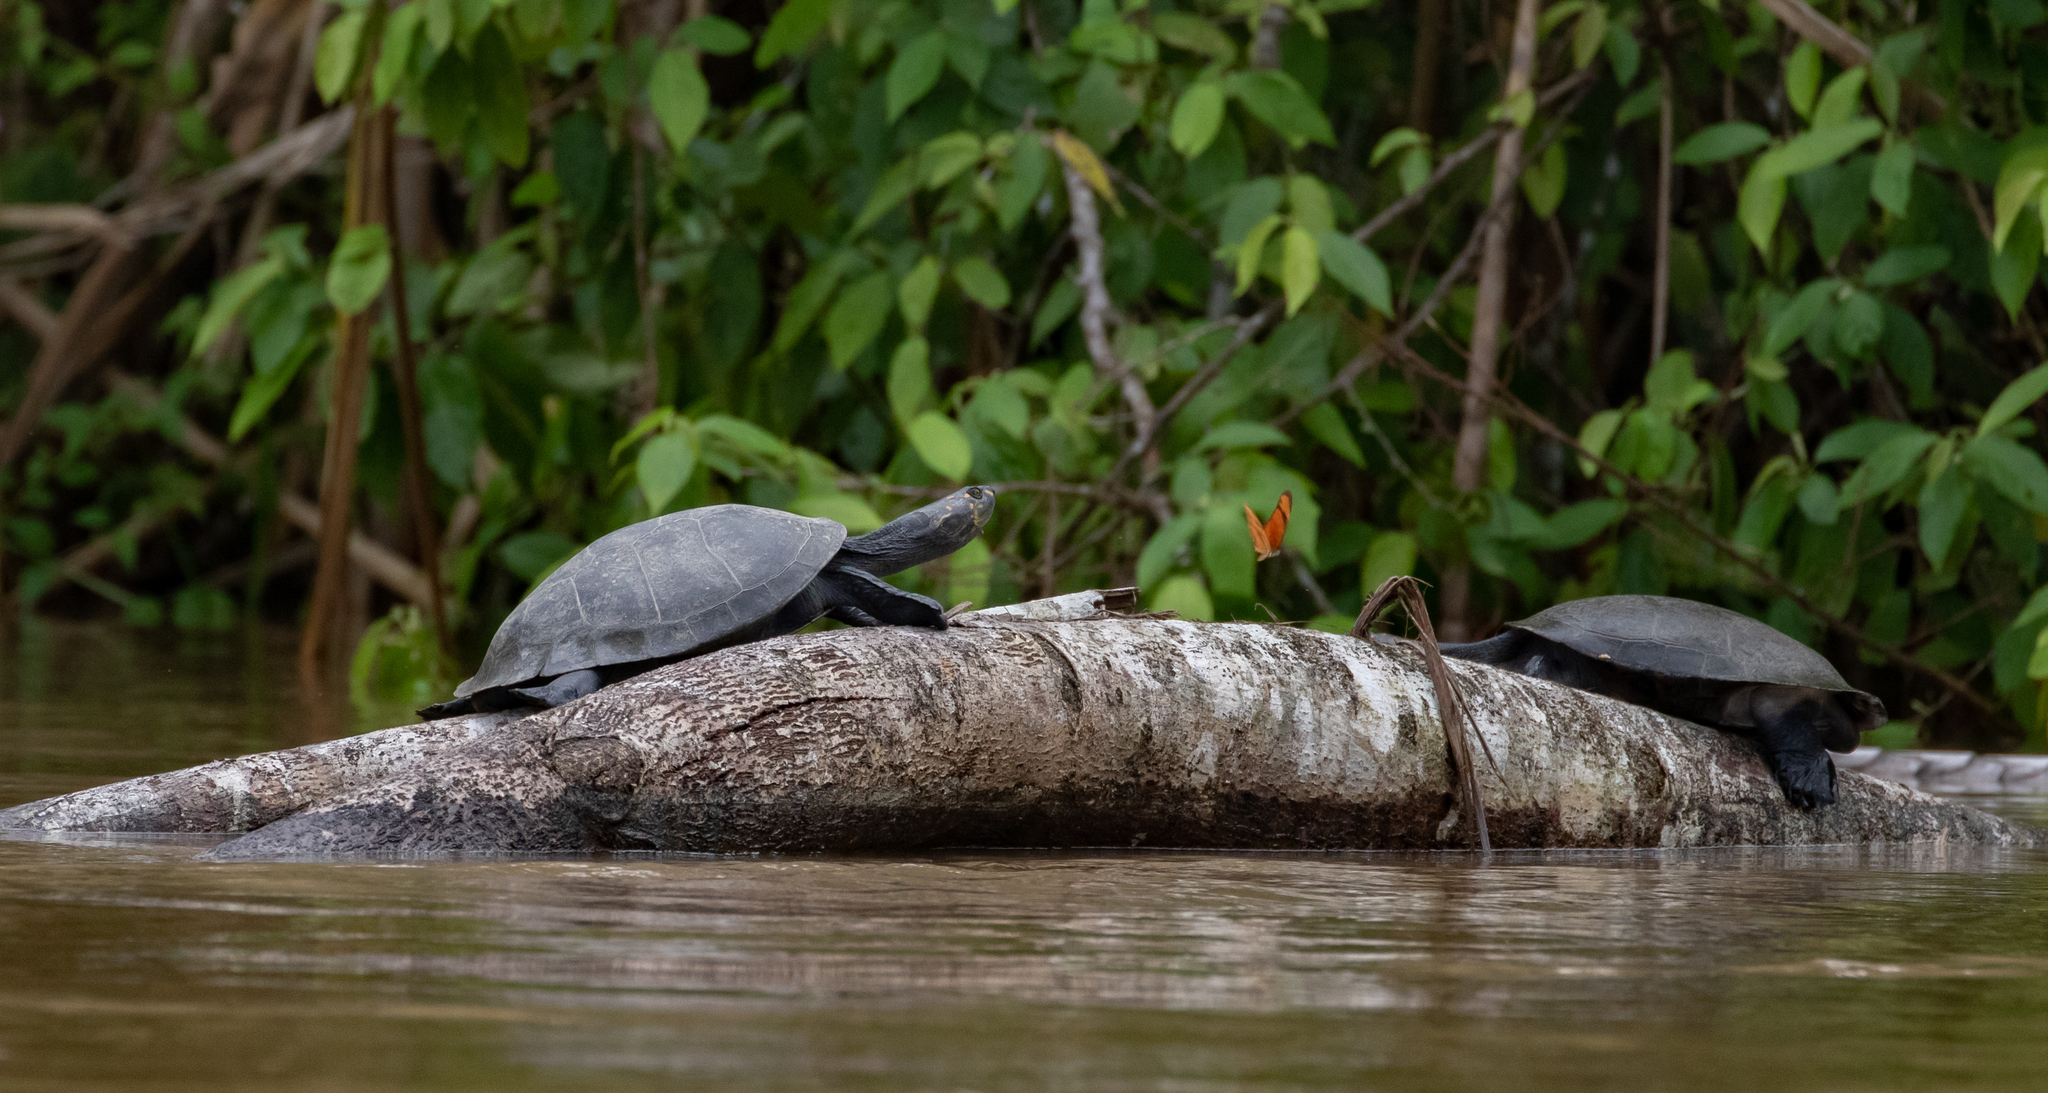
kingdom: Animalia
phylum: Chordata
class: Testudines
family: Podocnemididae
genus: Podocnemis
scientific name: Podocnemis unifilis
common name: Yellow-spotted amazon river turtle
